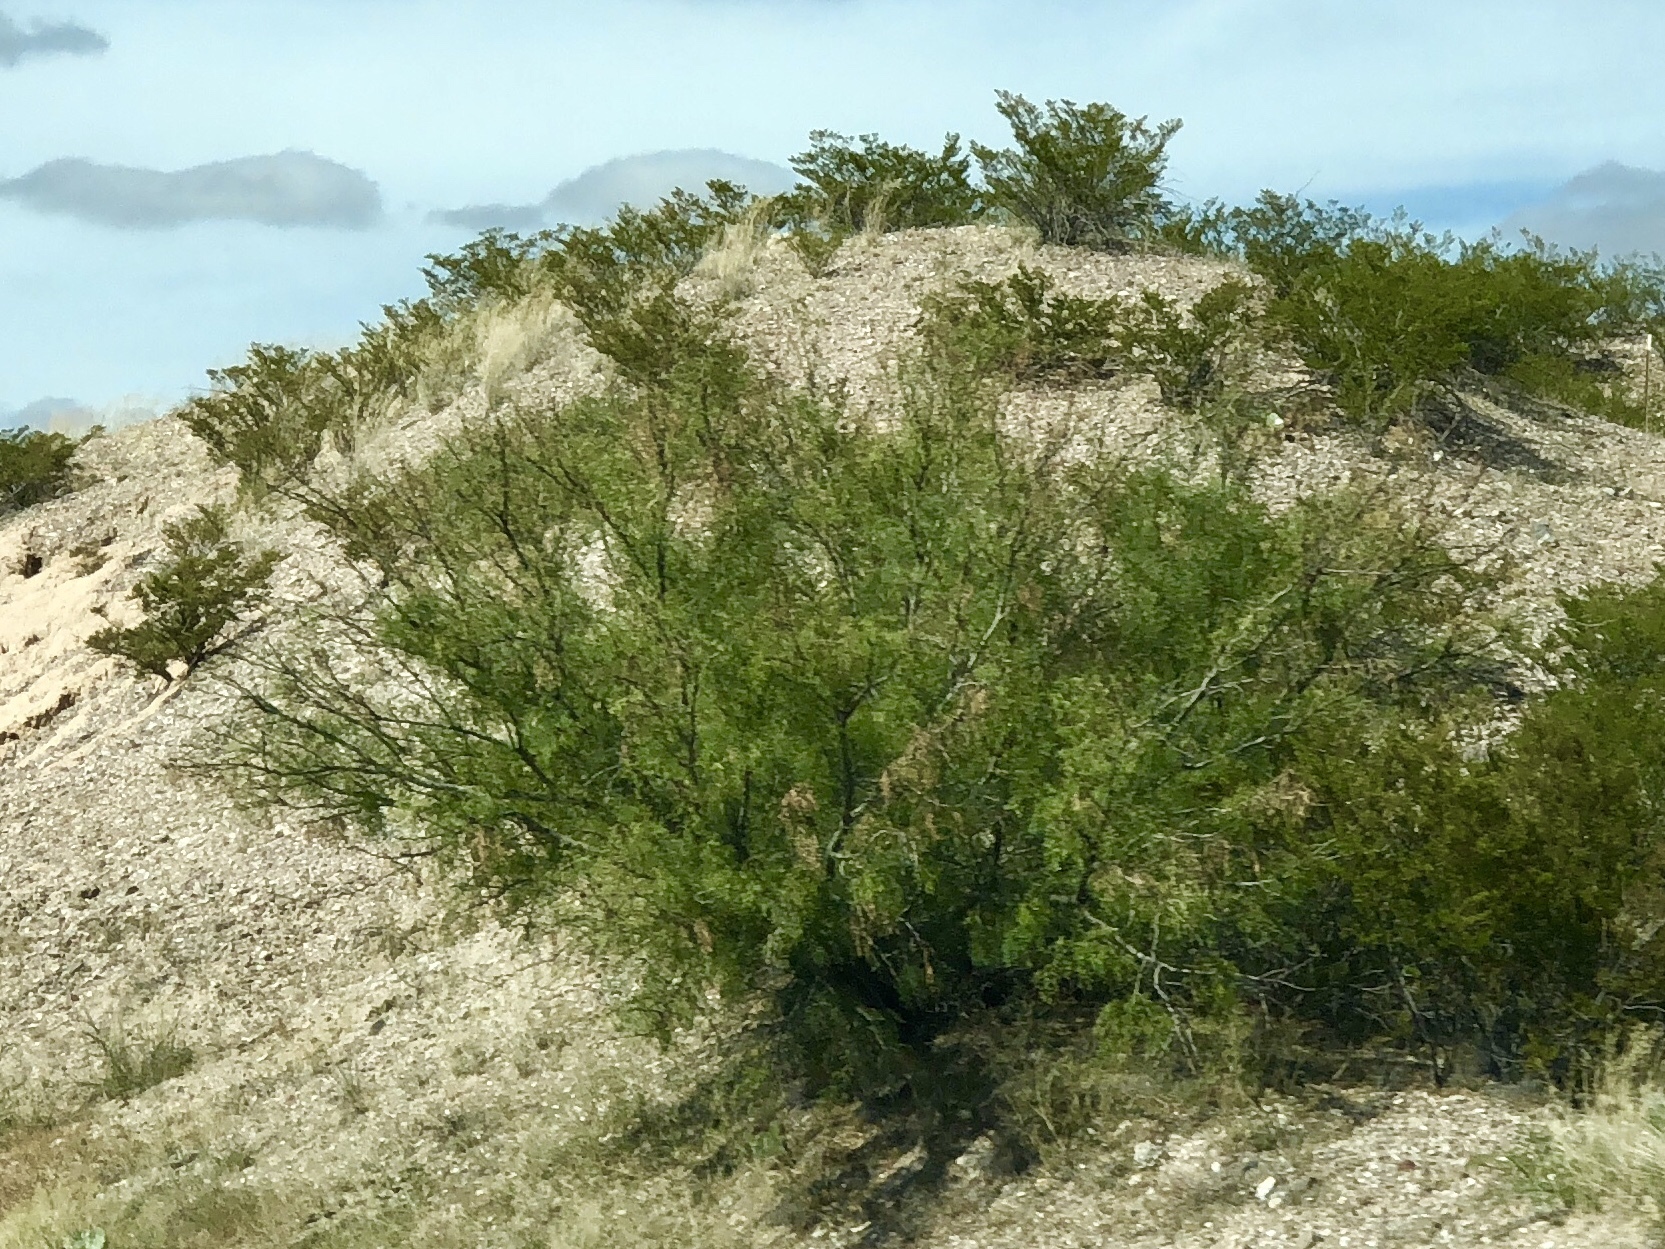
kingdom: Plantae
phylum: Tracheophyta
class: Magnoliopsida
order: Fabales
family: Fabaceae
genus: Prosopis
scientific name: Prosopis glandulosa
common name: Honey mesquite
